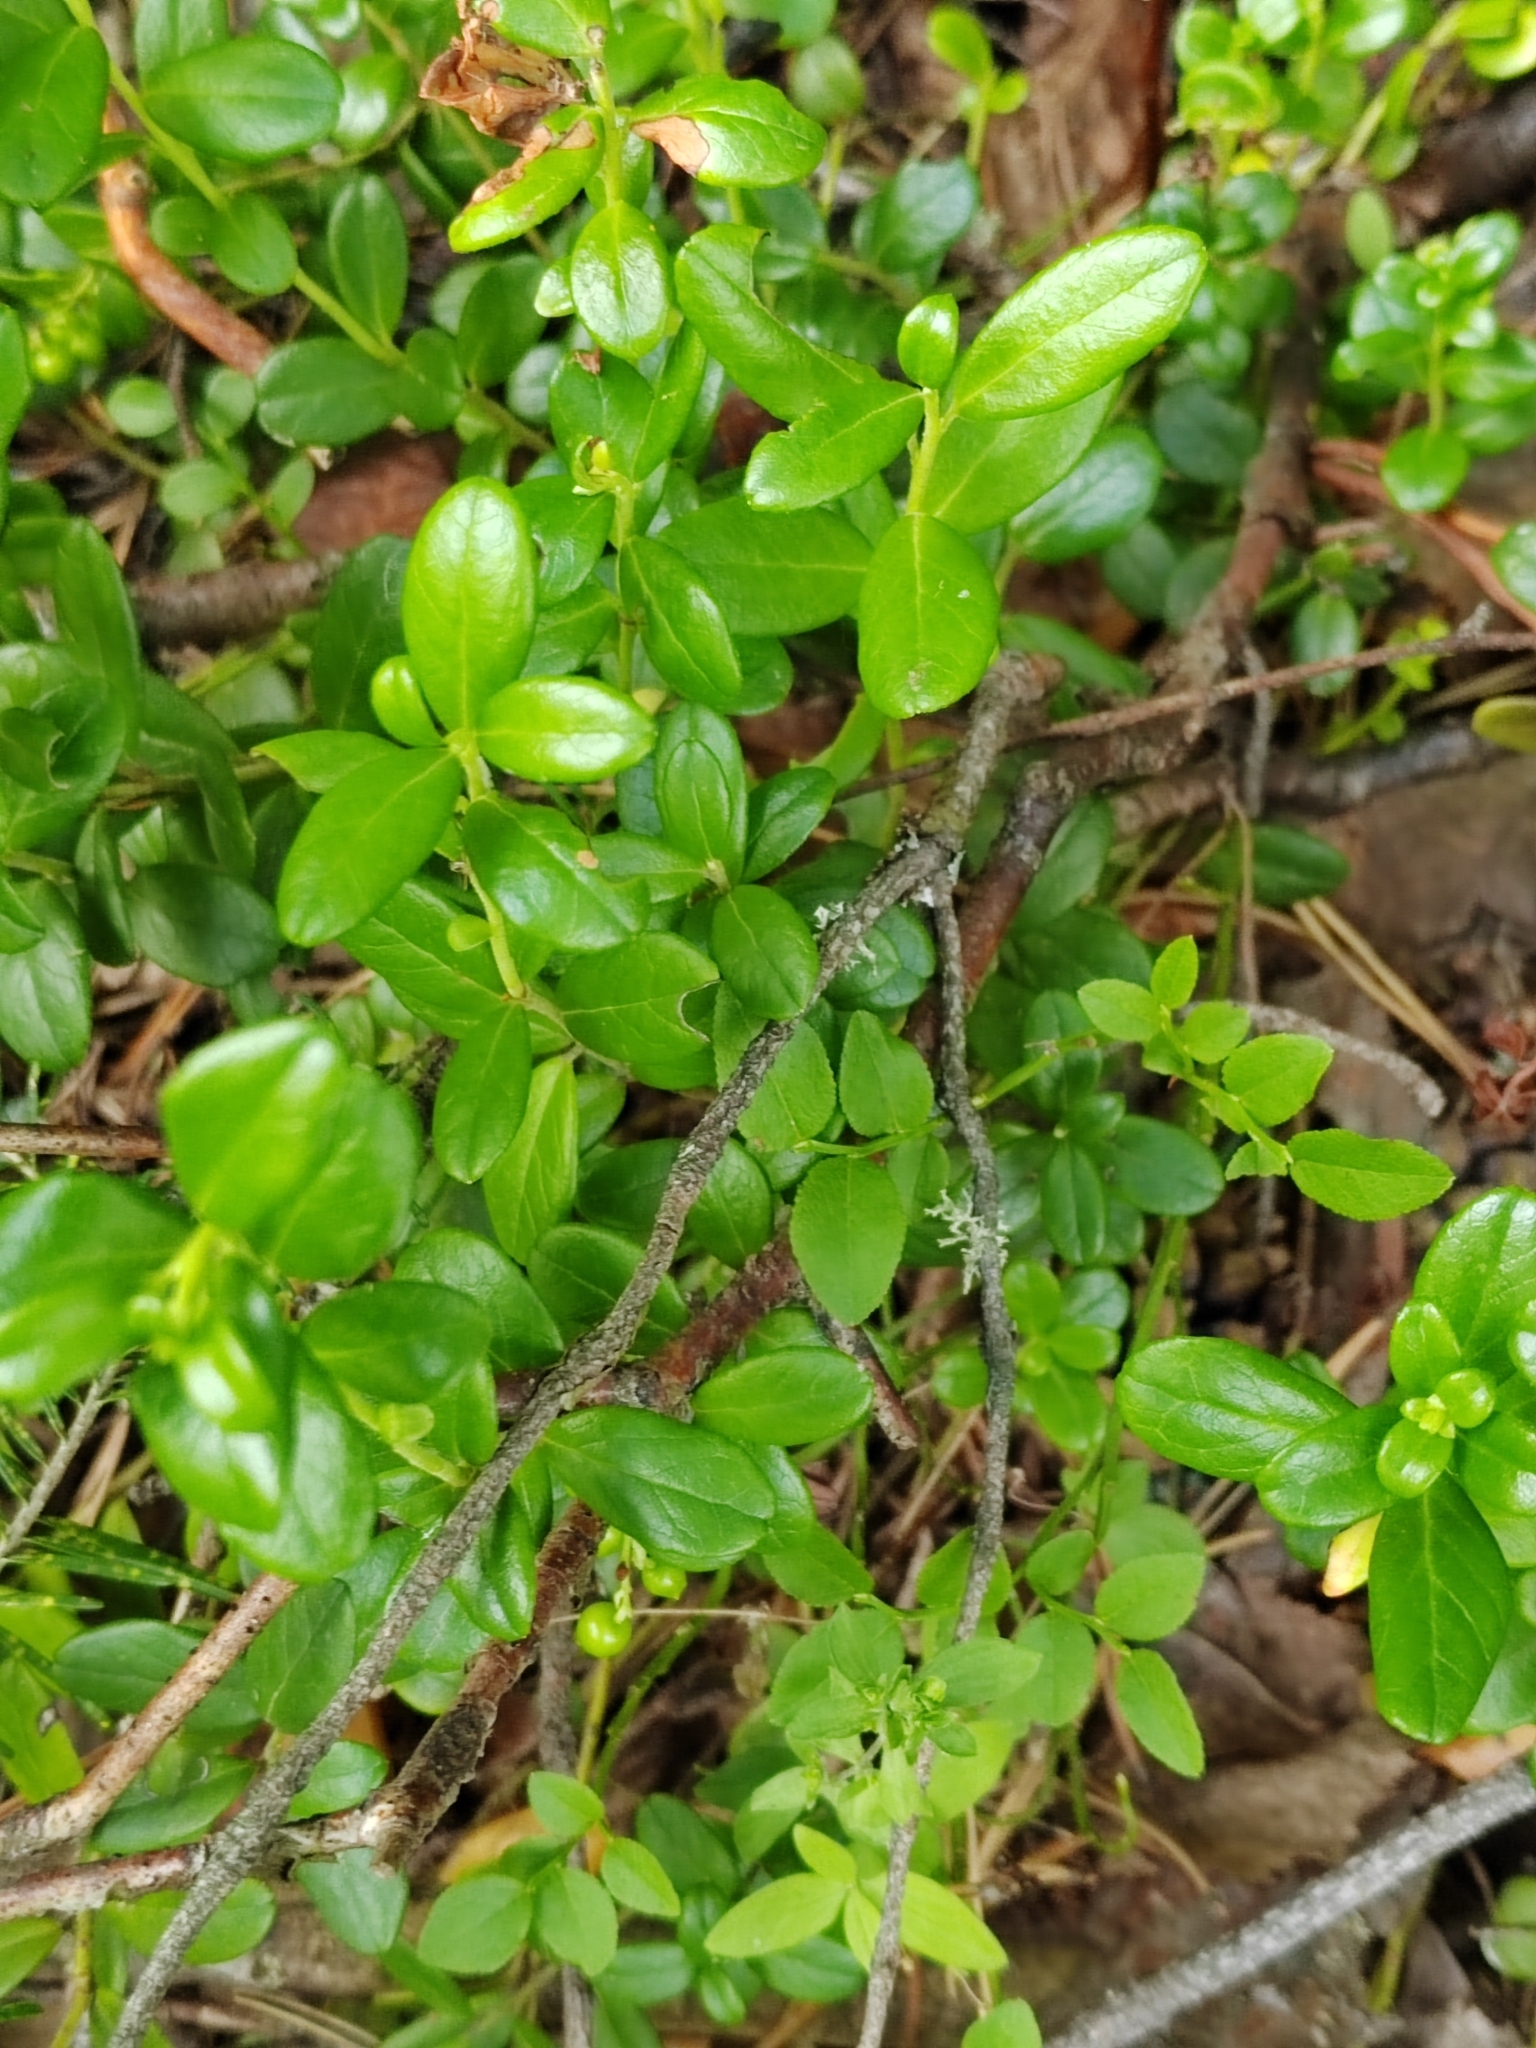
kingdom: Plantae
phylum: Tracheophyta
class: Magnoliopsida
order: Ericales
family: Ericaceae
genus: Vaccinium
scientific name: Vaccinium vitis-idaea
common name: Cowberry
